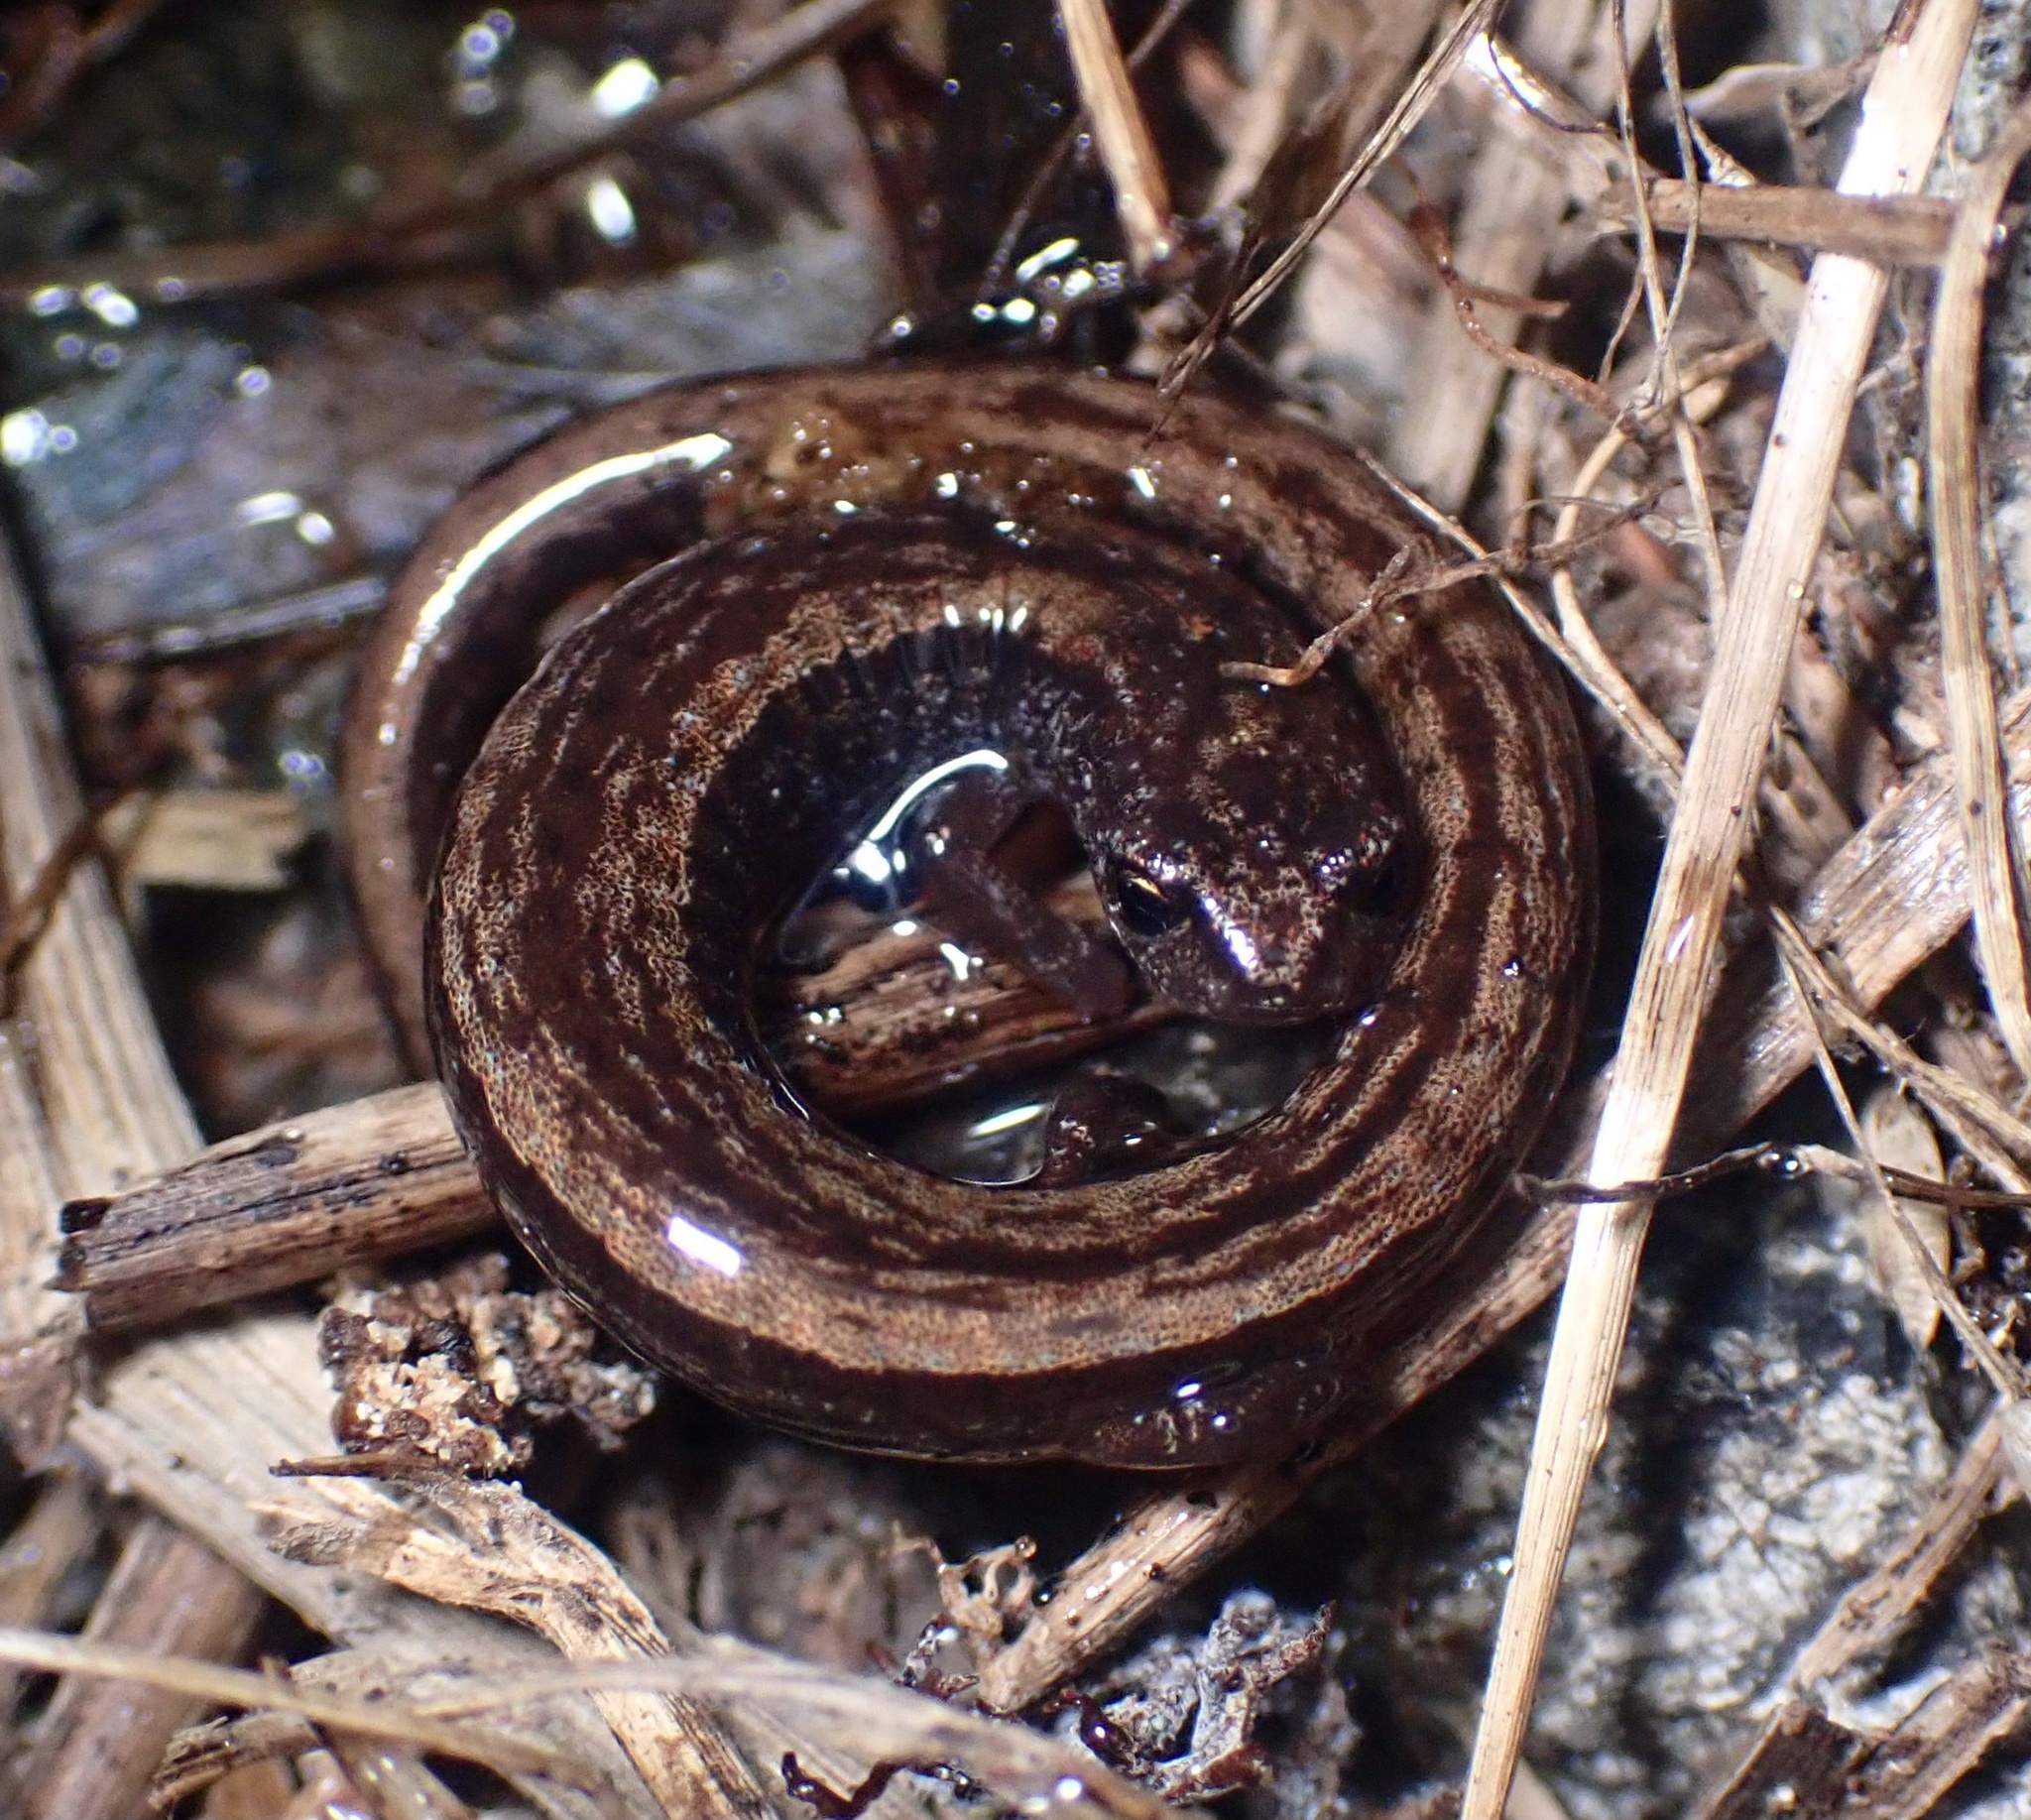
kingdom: Animalia
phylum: Chordata
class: Amphibia
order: Caudata
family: Plethodontidae
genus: Batrachoseps
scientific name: Batrachoseps attenuatus
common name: California slender salamander
